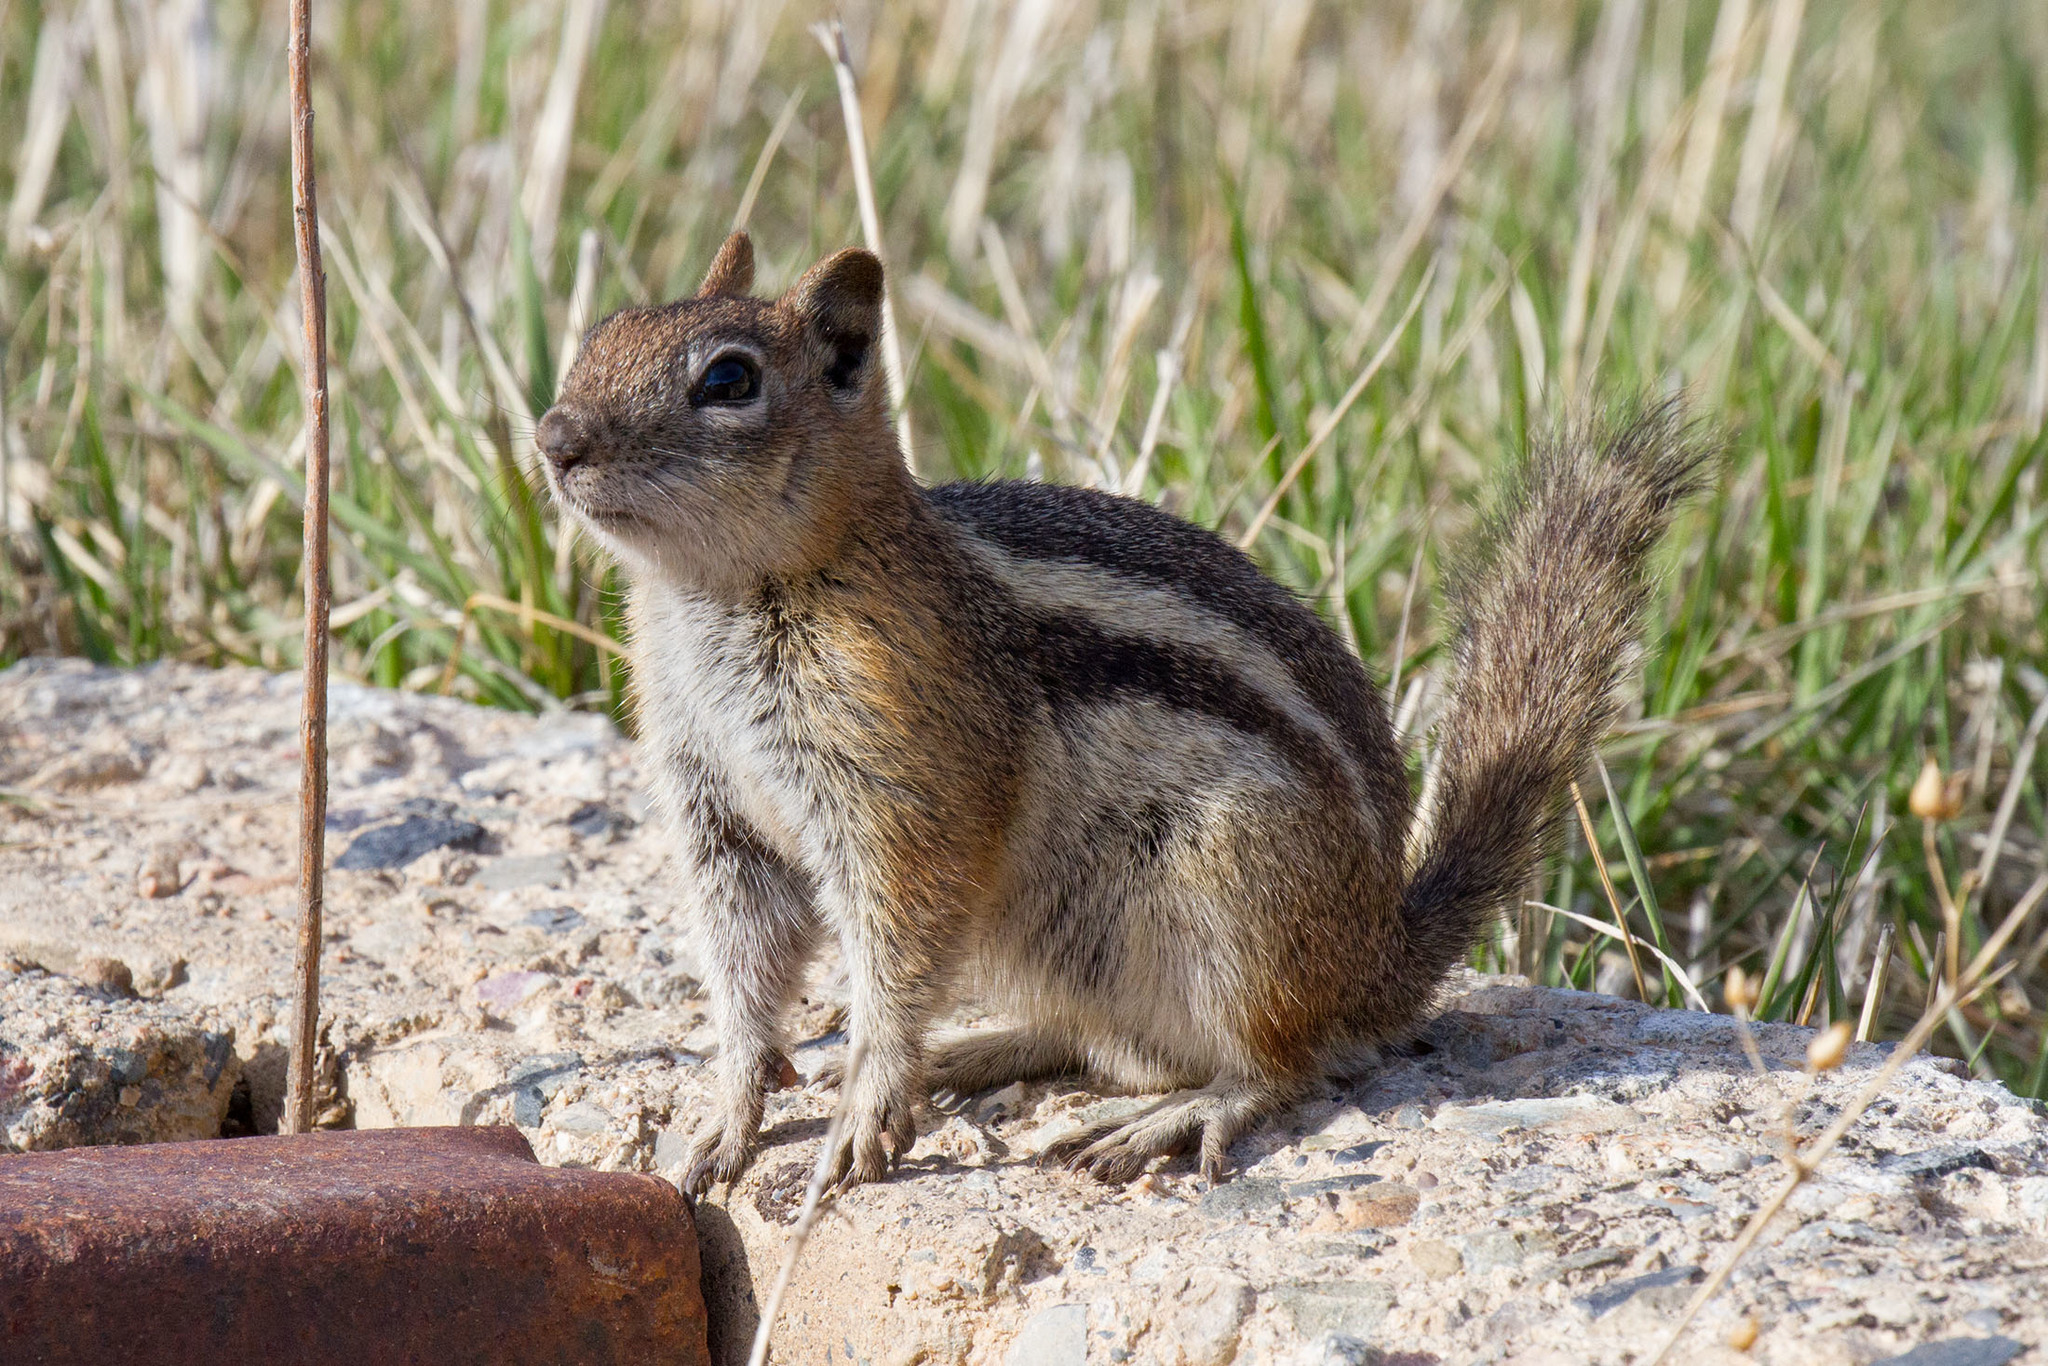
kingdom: Animalia
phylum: Chordata
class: Mammalia
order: Rodentia
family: Sciuridae
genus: Callospermophilus
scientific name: Callospermophilus lateralis
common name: Golden-mantled ground squirrel
